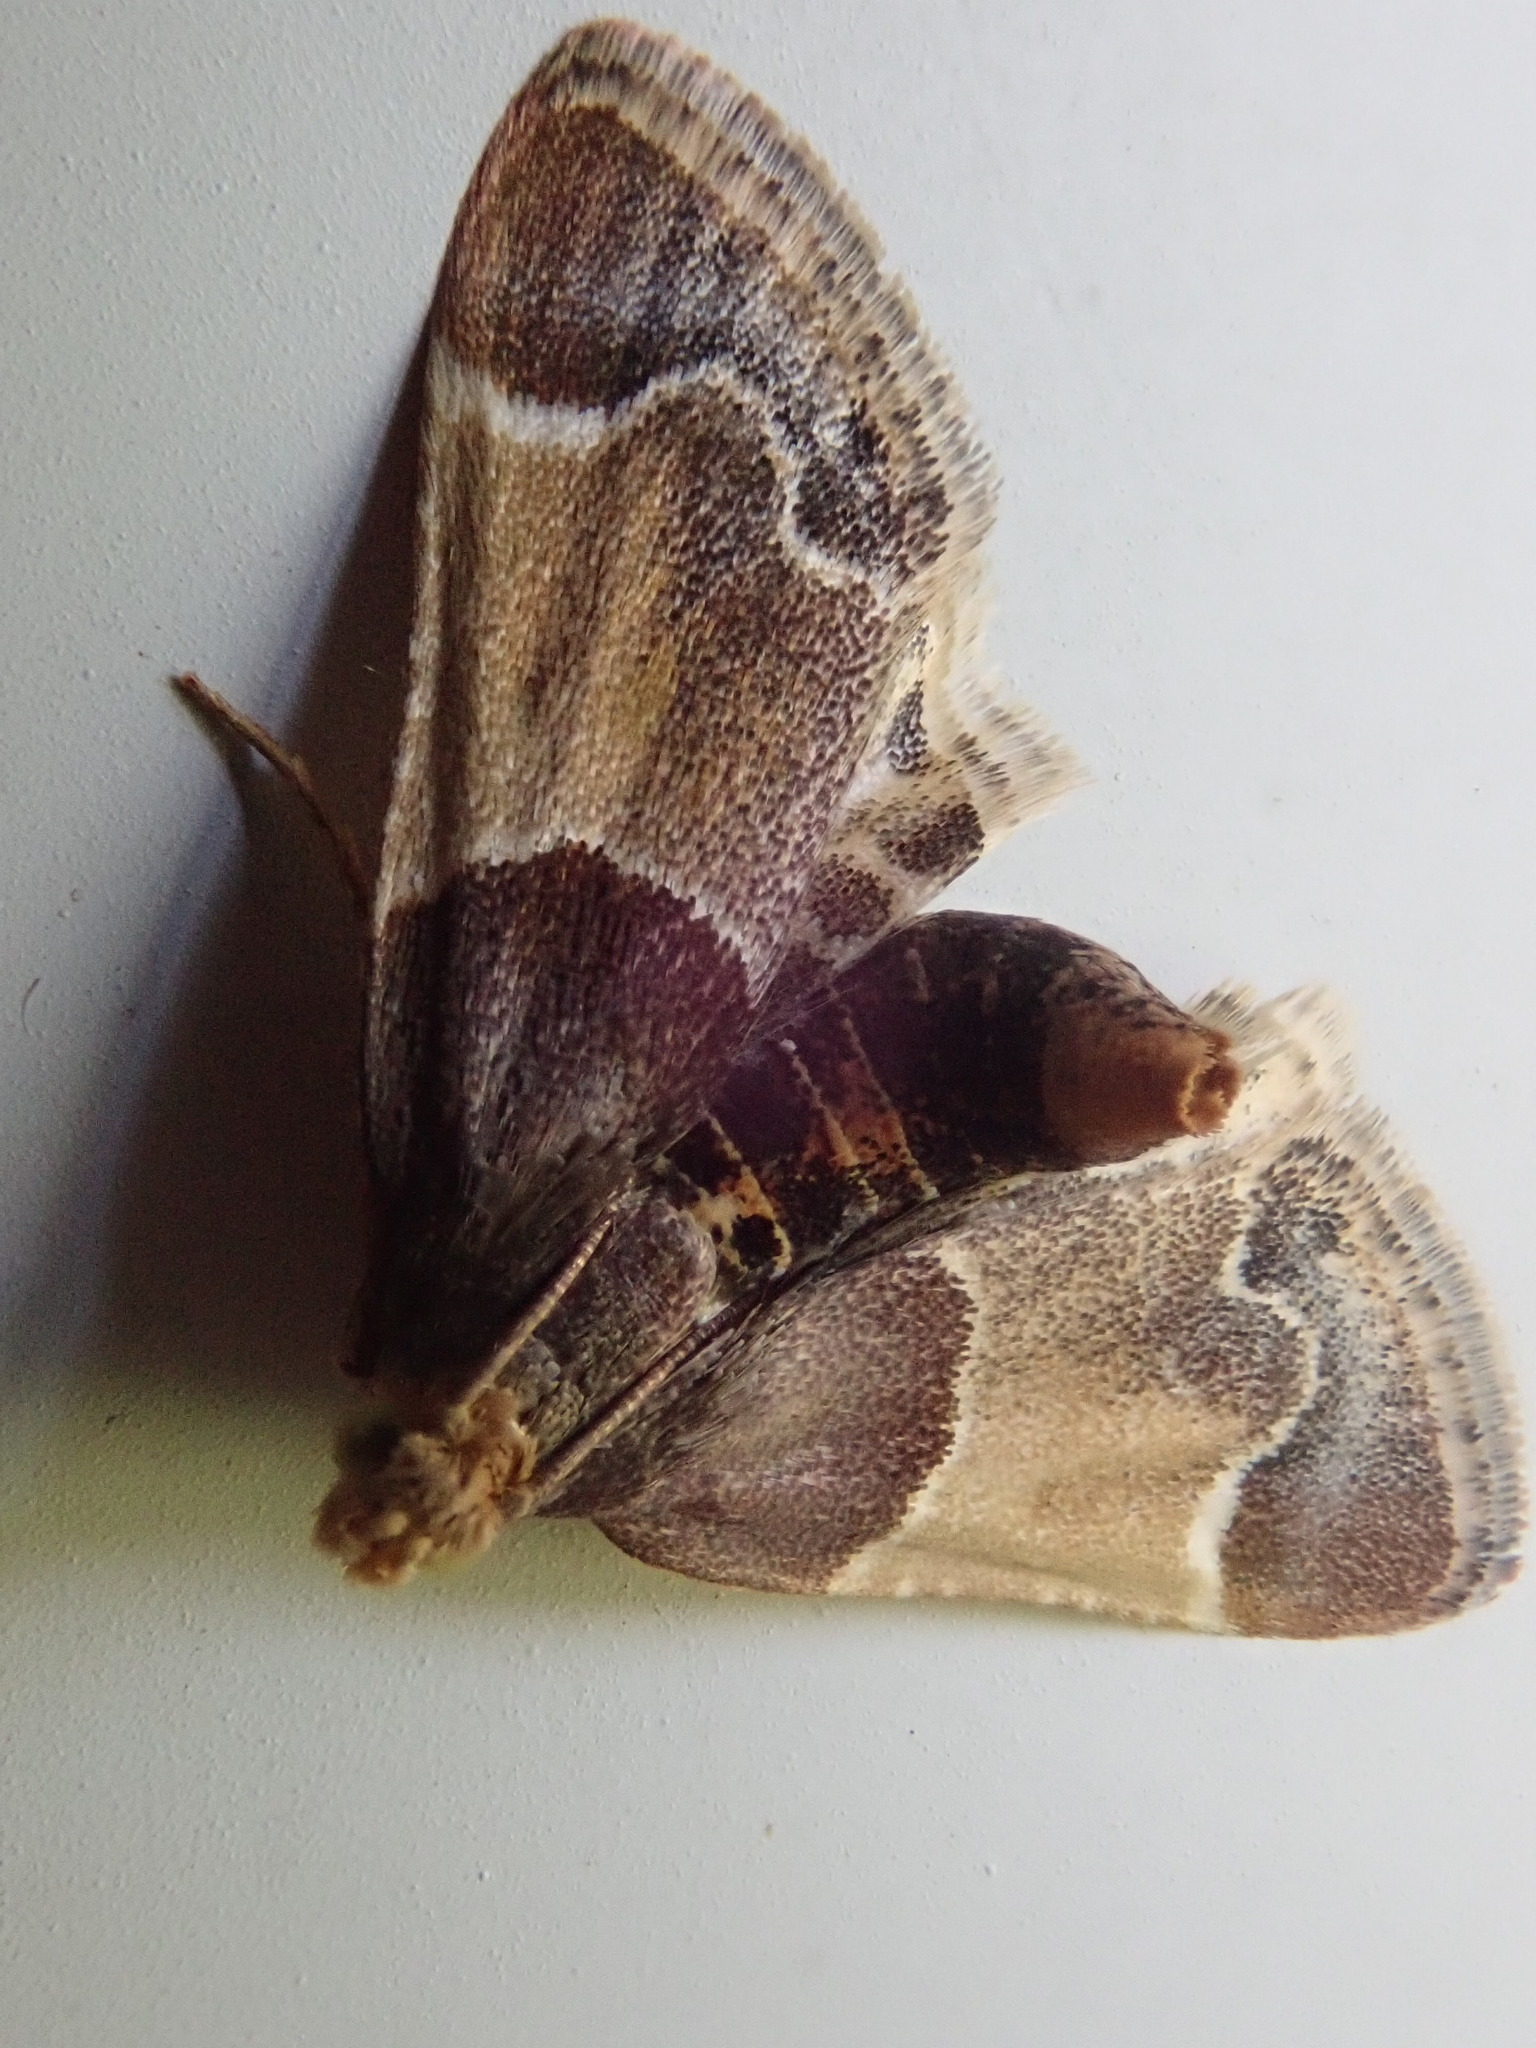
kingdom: Animalia
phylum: Arthropoda
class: Insecta
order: Lepidoptera
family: Pyralidae
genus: Pyralis
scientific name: Pyralis farinalis
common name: Meal moth
